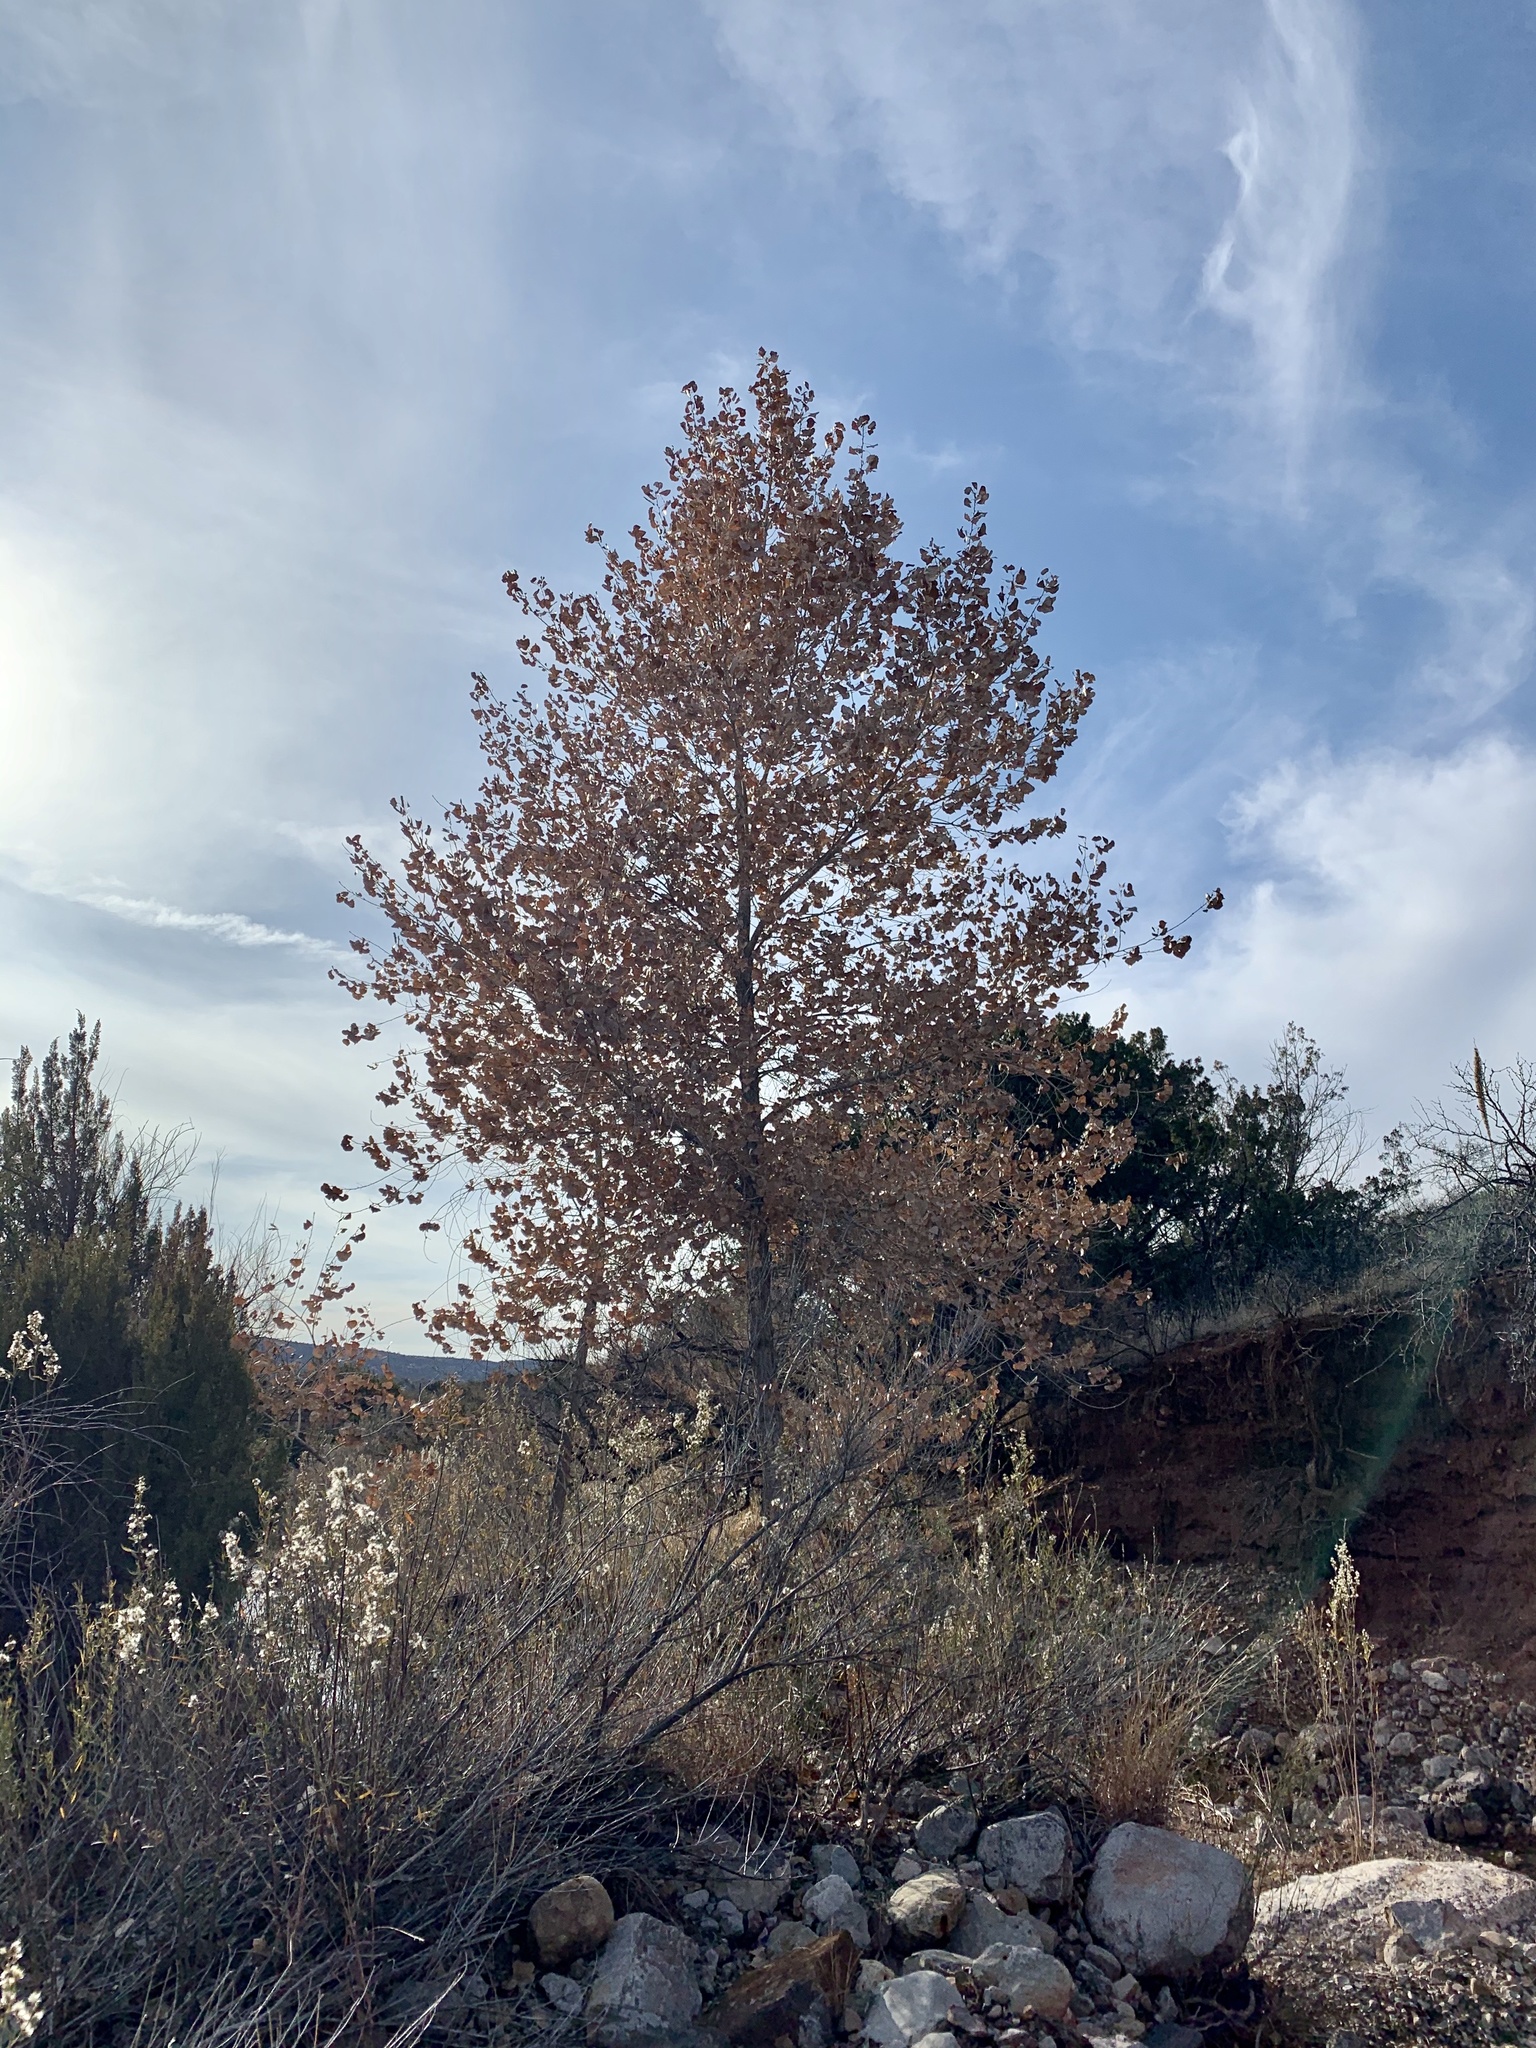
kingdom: Plantae
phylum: Tracheophyta
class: Magnoliopsida
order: Malpighiales
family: Salicaceae
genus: Populus
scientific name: Populus fremontii
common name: Fremont's cottonwood
